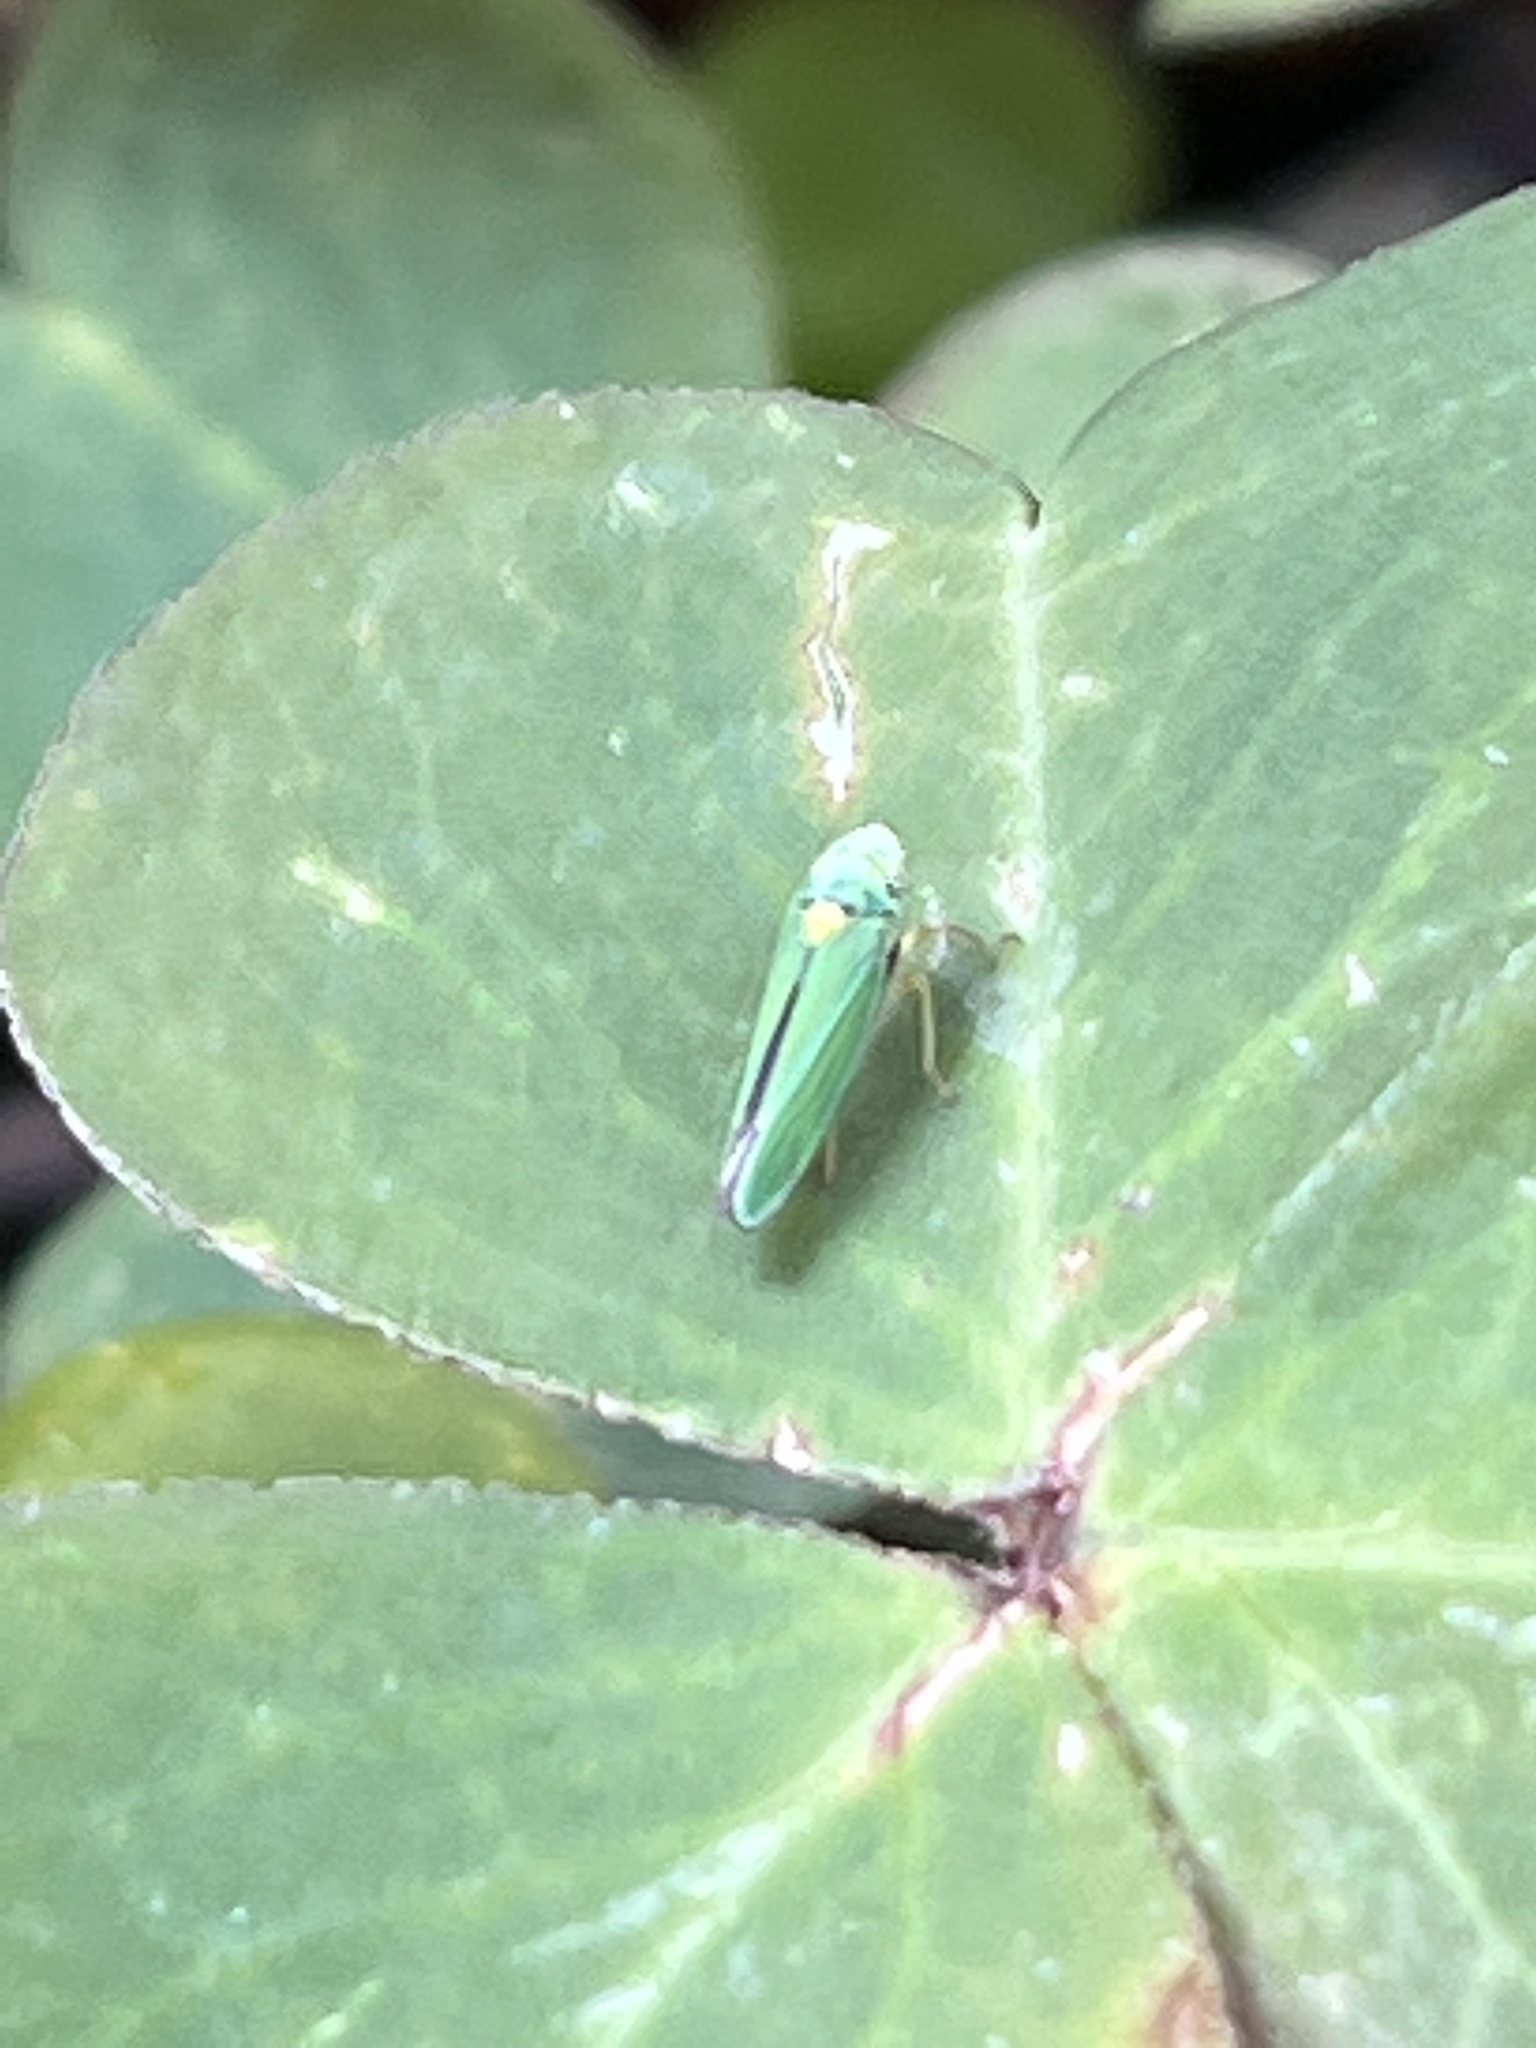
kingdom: Animalia
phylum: Arthropoda
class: Insecta
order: Hemiptera
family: Cicadellidae
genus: Graphocephala
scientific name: Graphocephala atropunctata
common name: Blue-green sharpshooter
